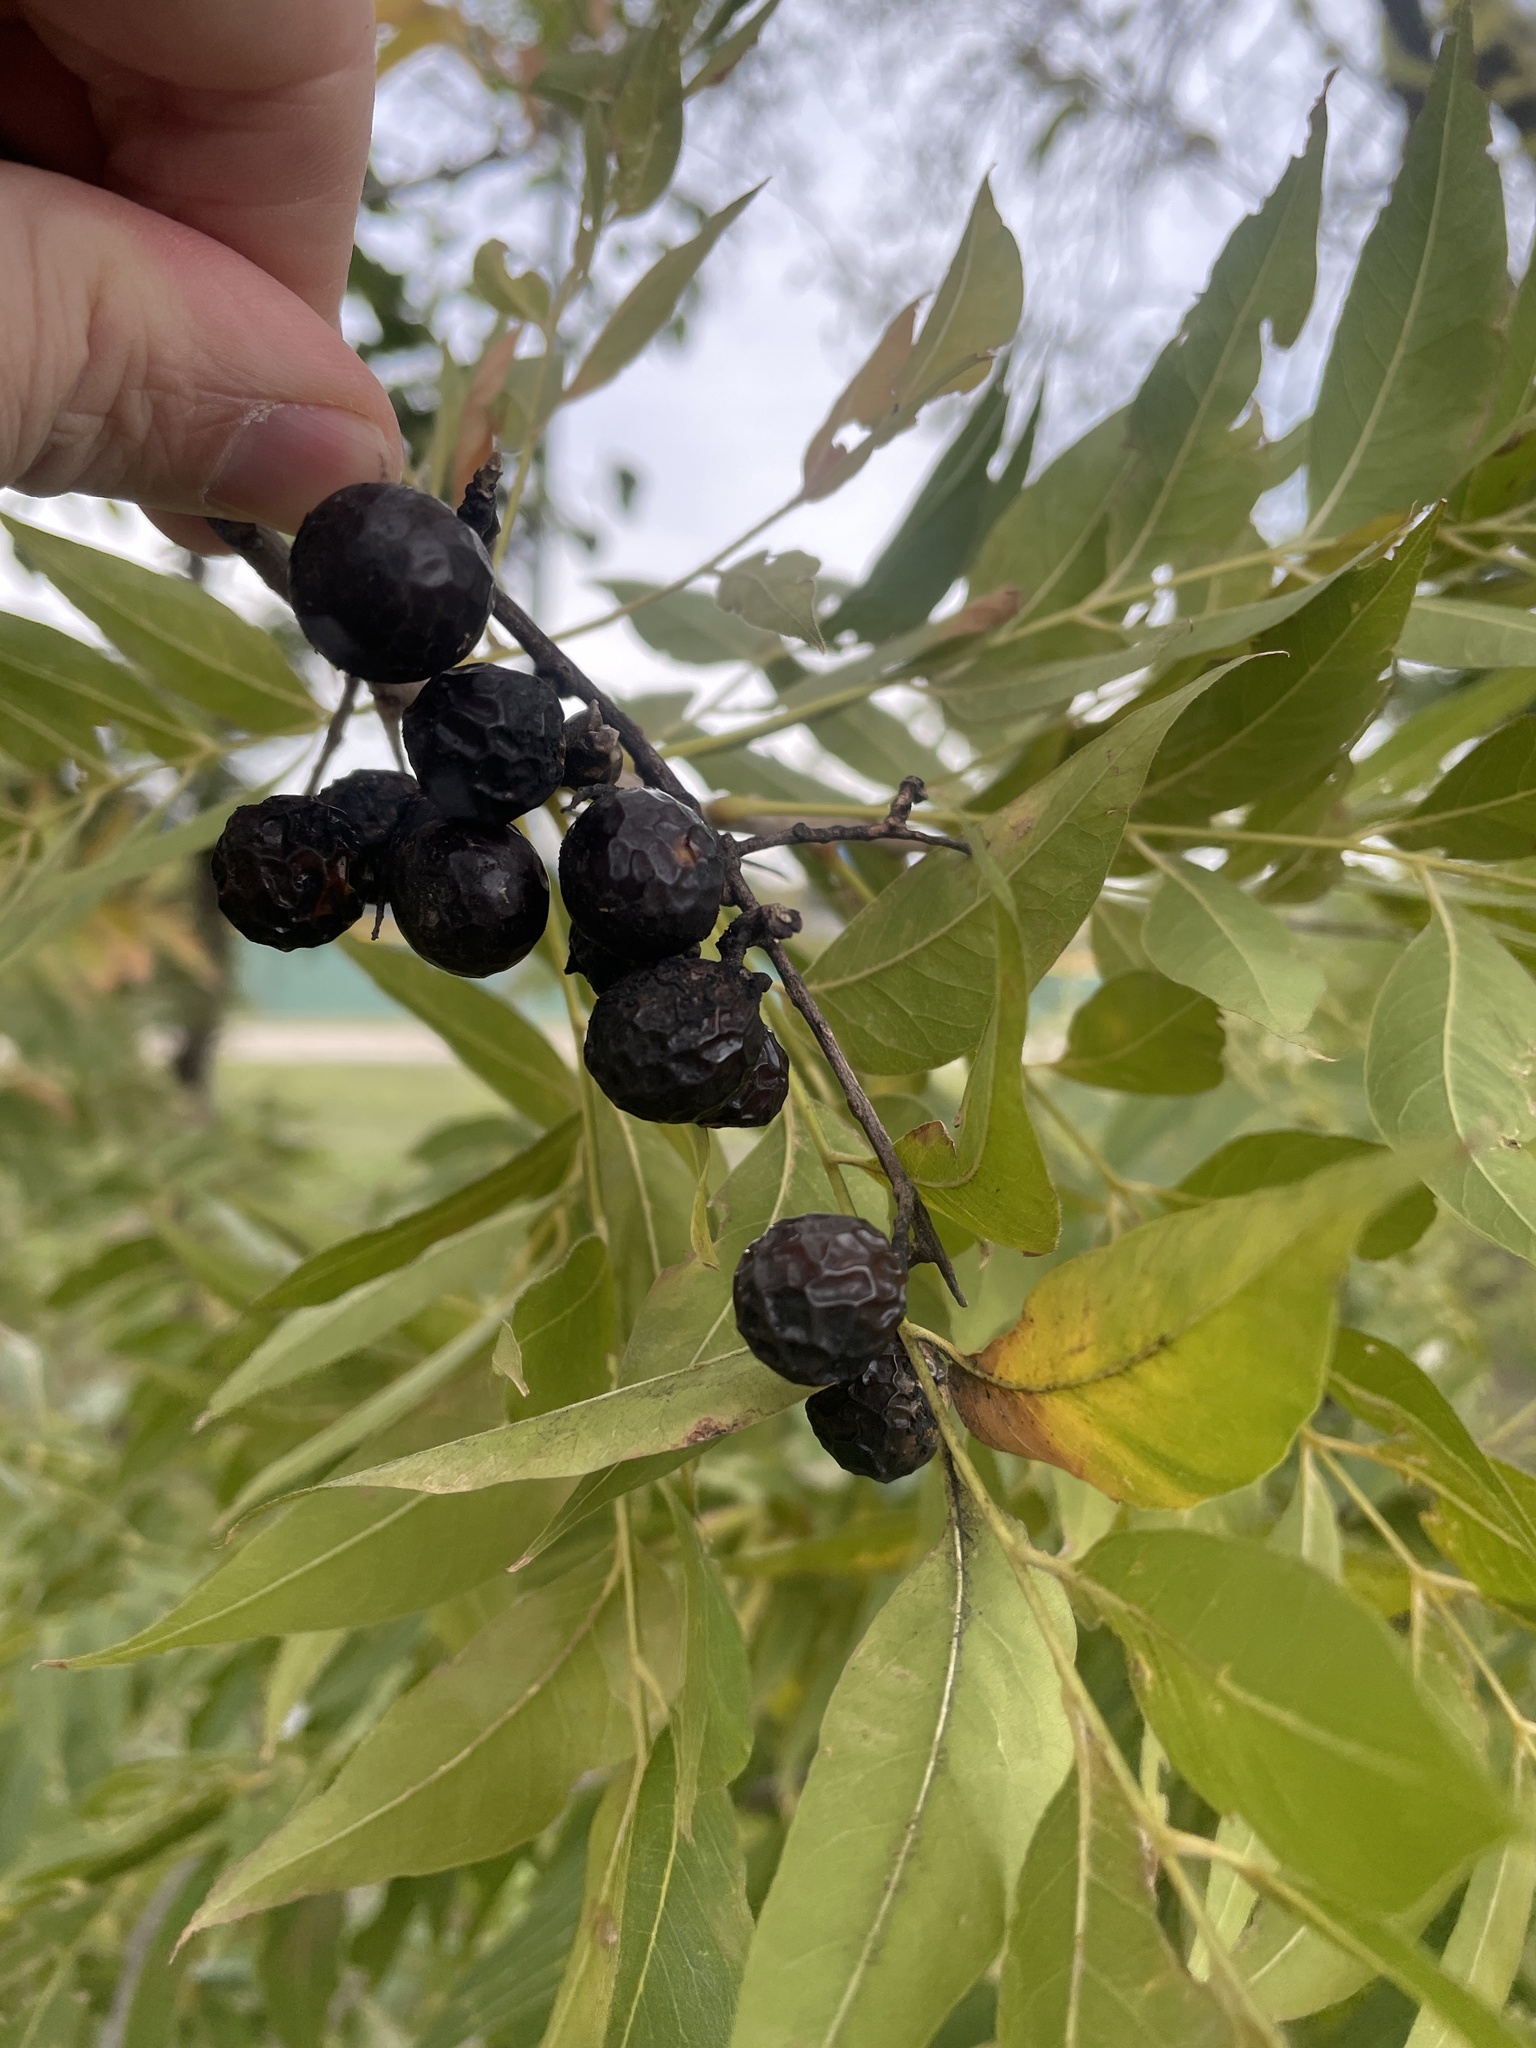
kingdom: Plantae
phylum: Tracheophyta
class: Magnoliopsida
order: Sapindales
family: Sapindaceae
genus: Sapindus
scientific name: Sapindus drummondii
